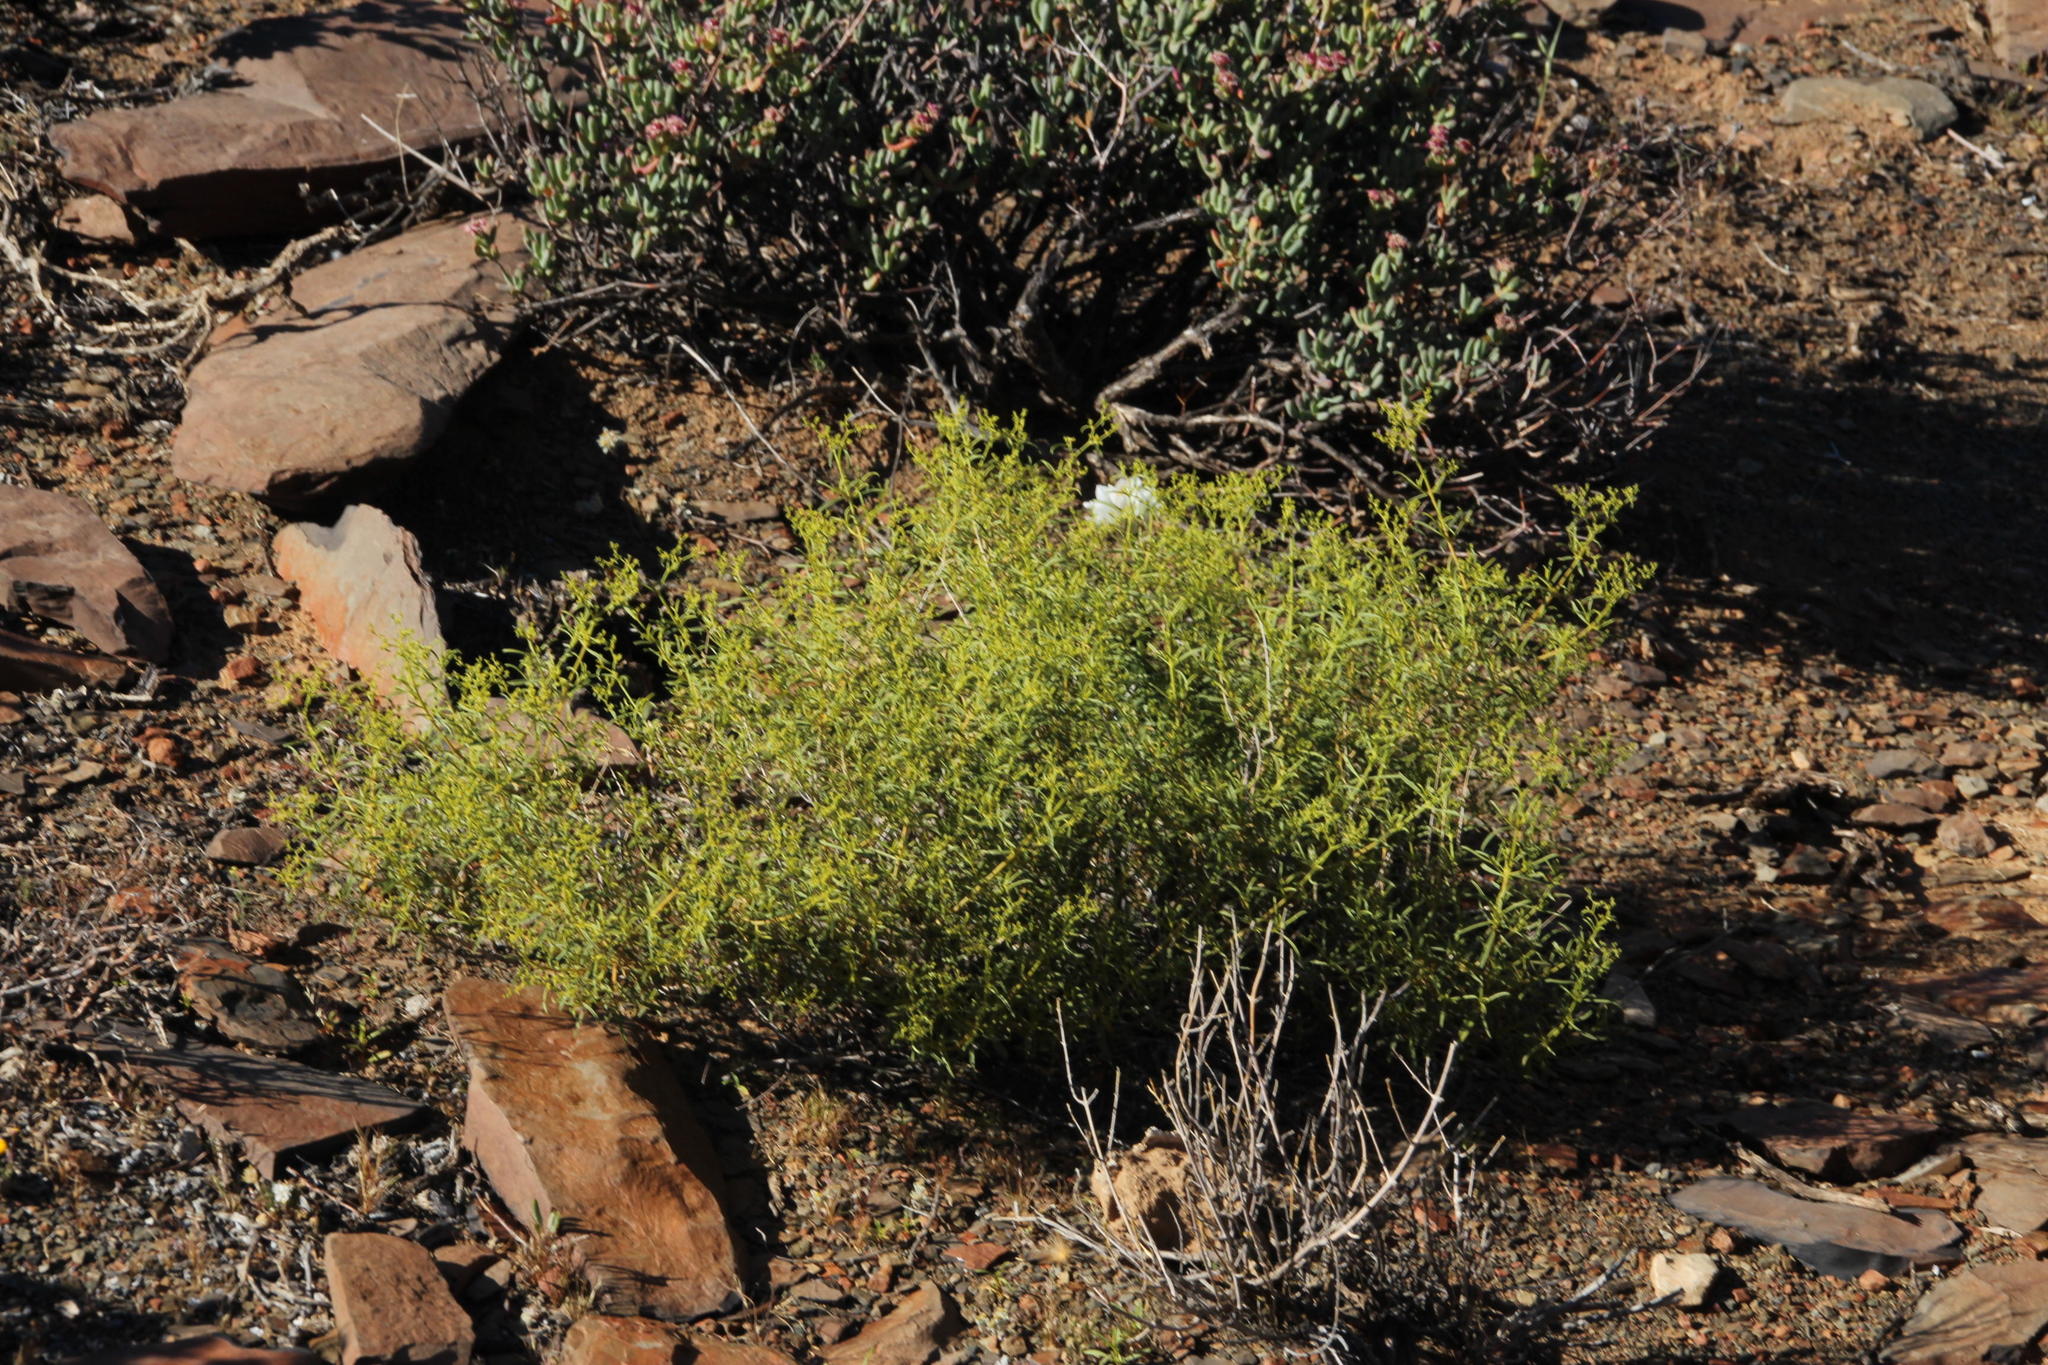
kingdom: Plantae
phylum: Tracheophyta
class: Magnoliopsida
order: Caryophyllales
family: Aizoaceae
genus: Aizoon
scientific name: Aizoon africanum
